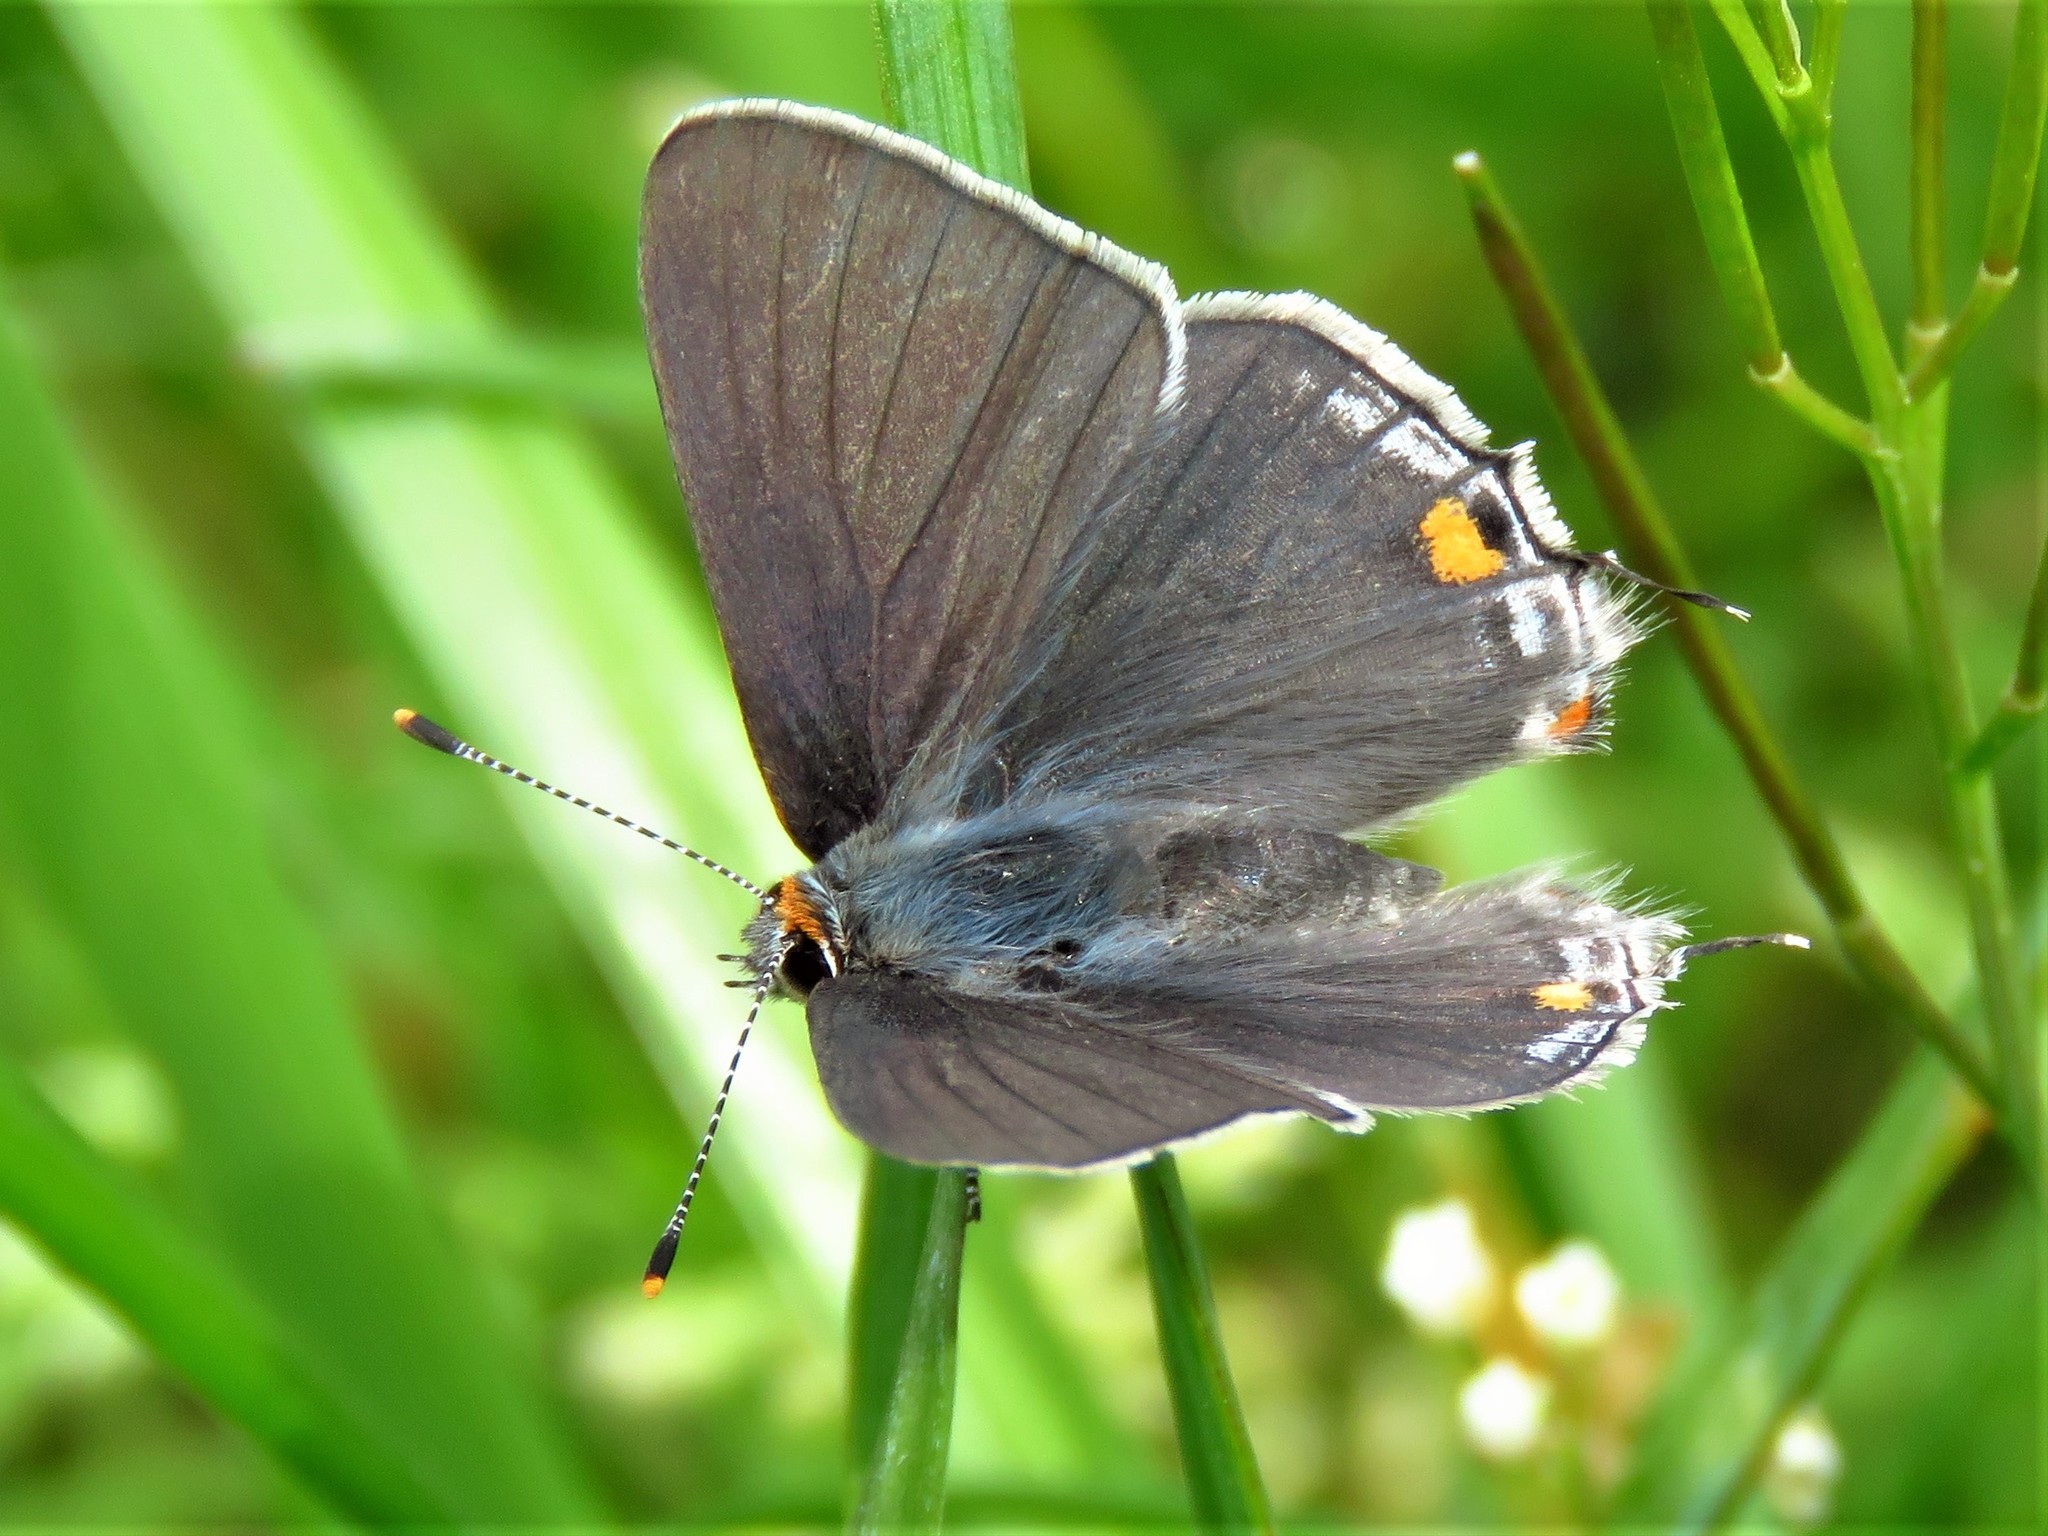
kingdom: Animalia
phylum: Arthropoda
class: Insecta
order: Lepidoptera
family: Lycaenidae
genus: Strymon
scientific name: Strymon melinus
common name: Gray hairstreak
